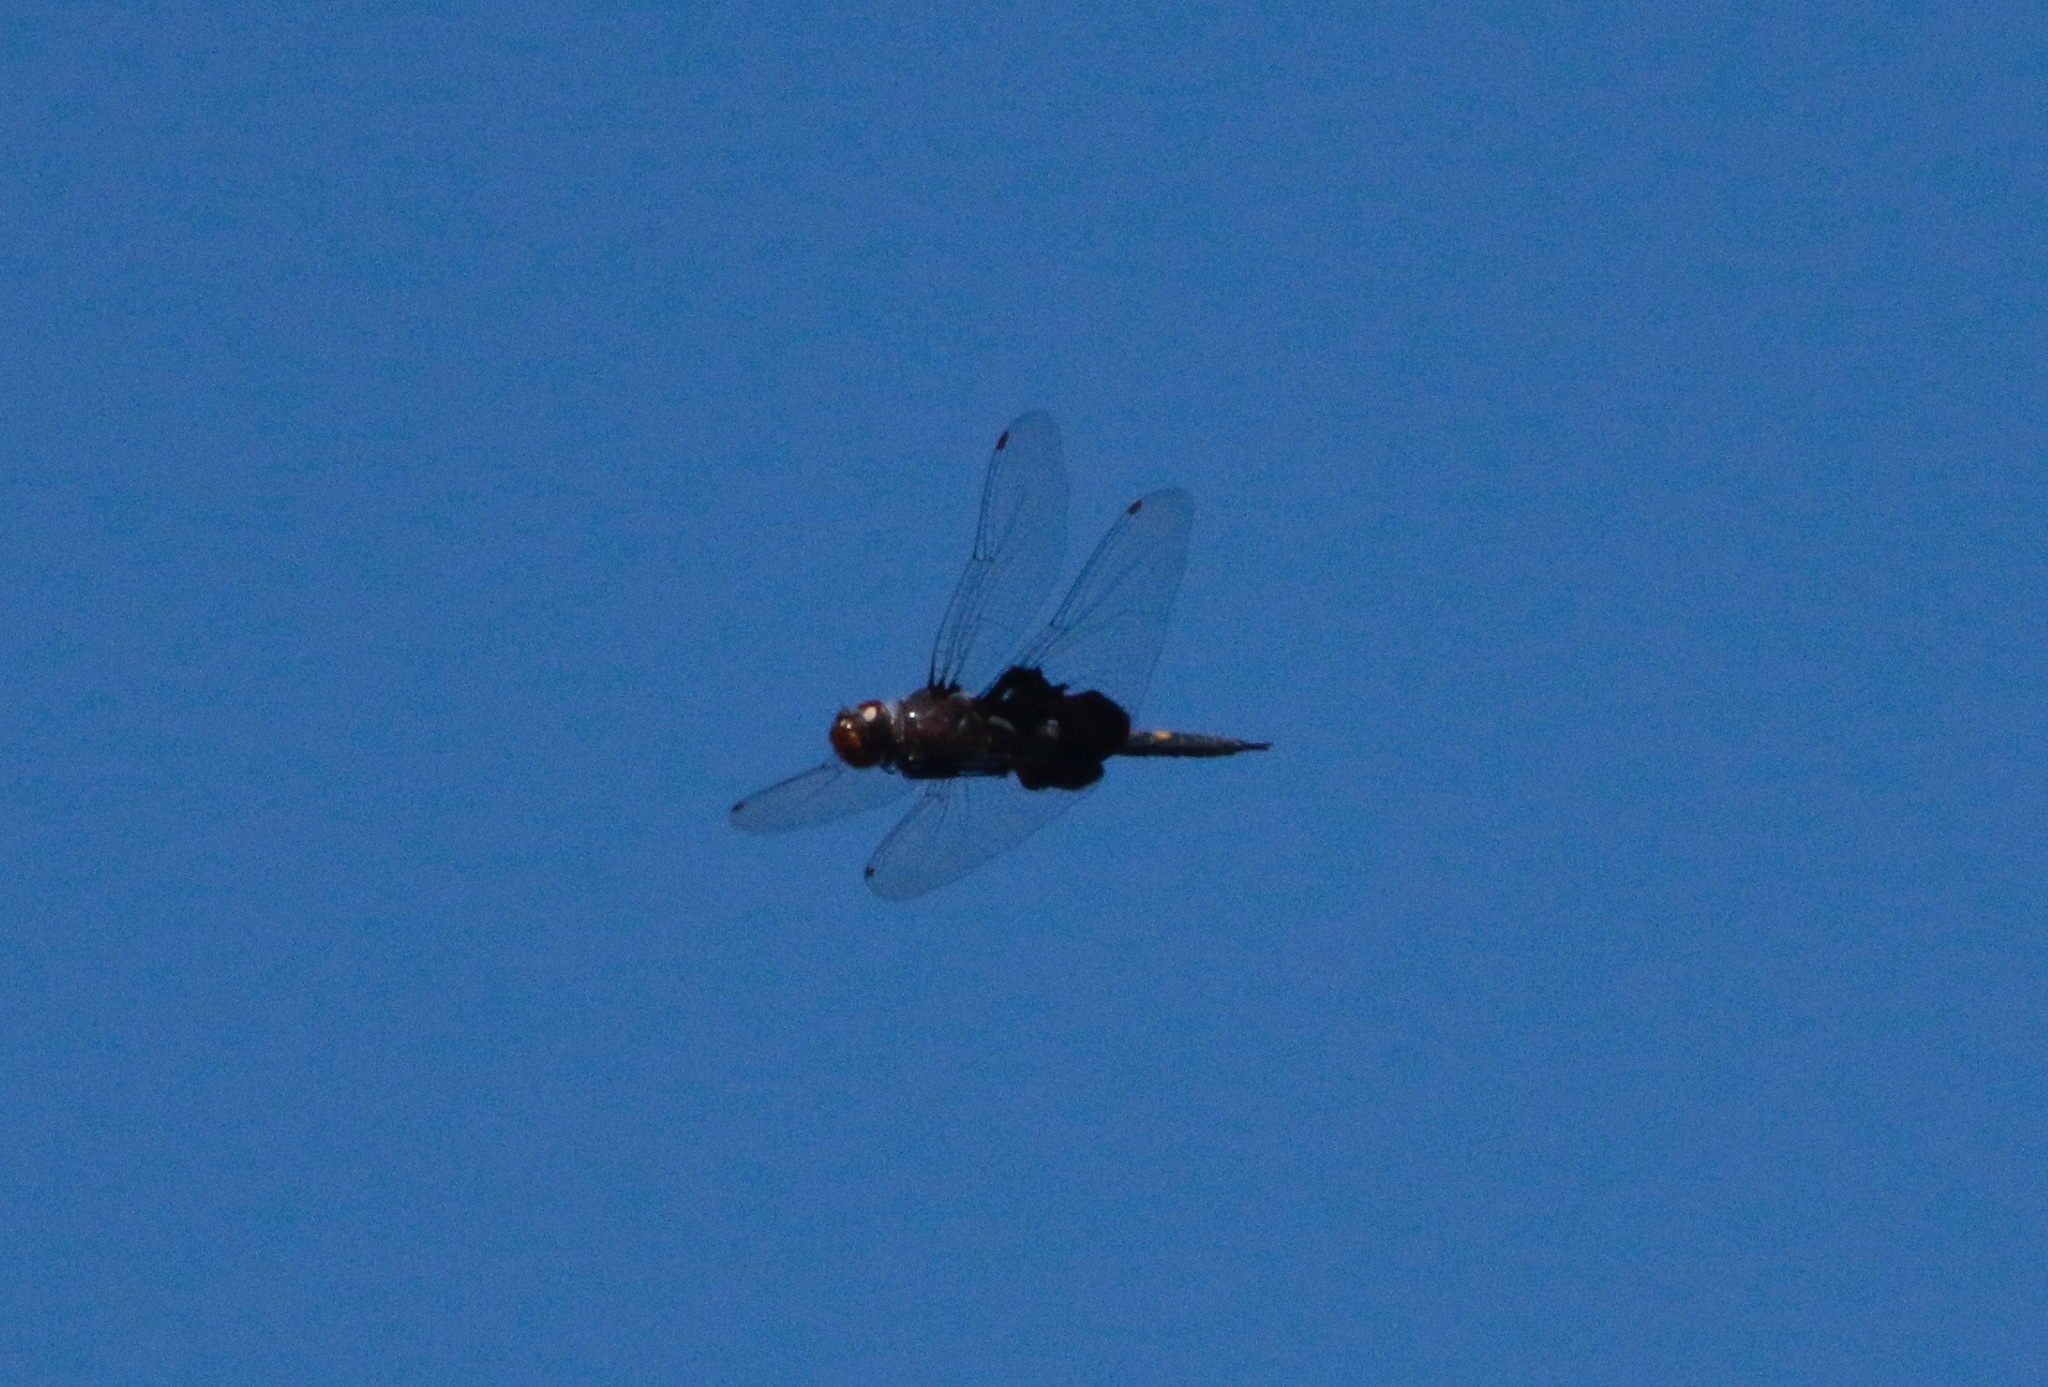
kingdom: Animalia
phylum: Arthropoda
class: Insecta
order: Odonata
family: Libellulidae
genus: Tramea
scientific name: Tramea lacerata
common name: Black saddlebags
